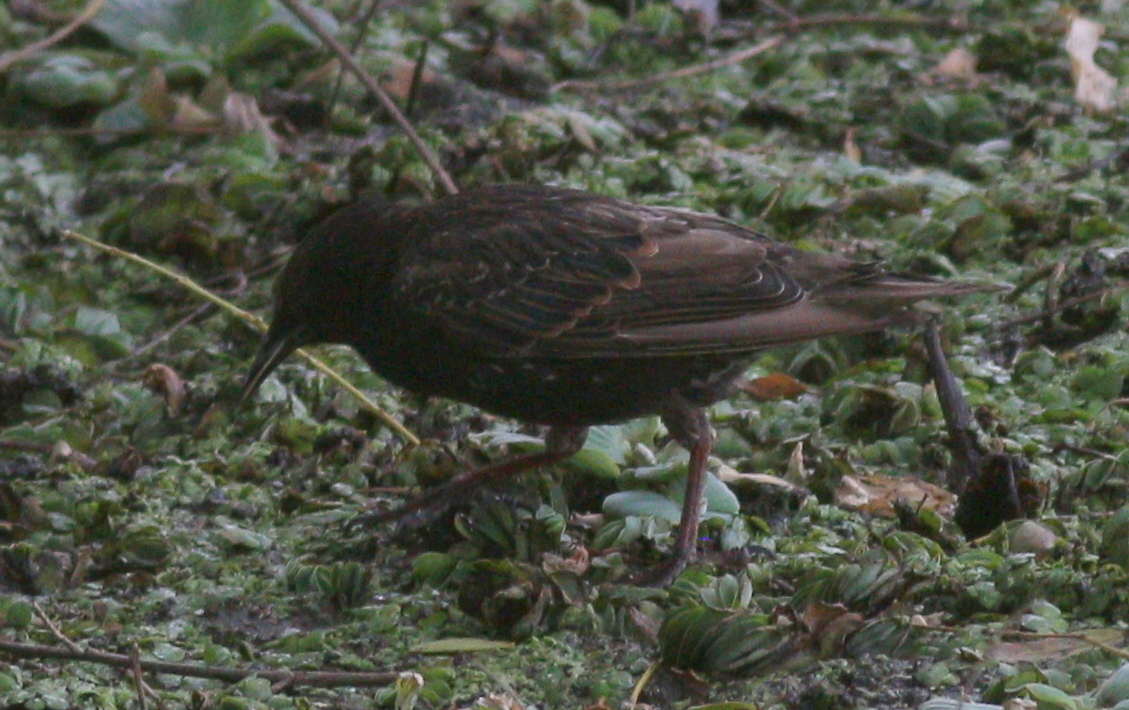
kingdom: Animalia
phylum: Chordata
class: Aves
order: Passeriformes
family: Sturnidae
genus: Sturnus
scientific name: Sturnus vulgaris
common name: Common starling
